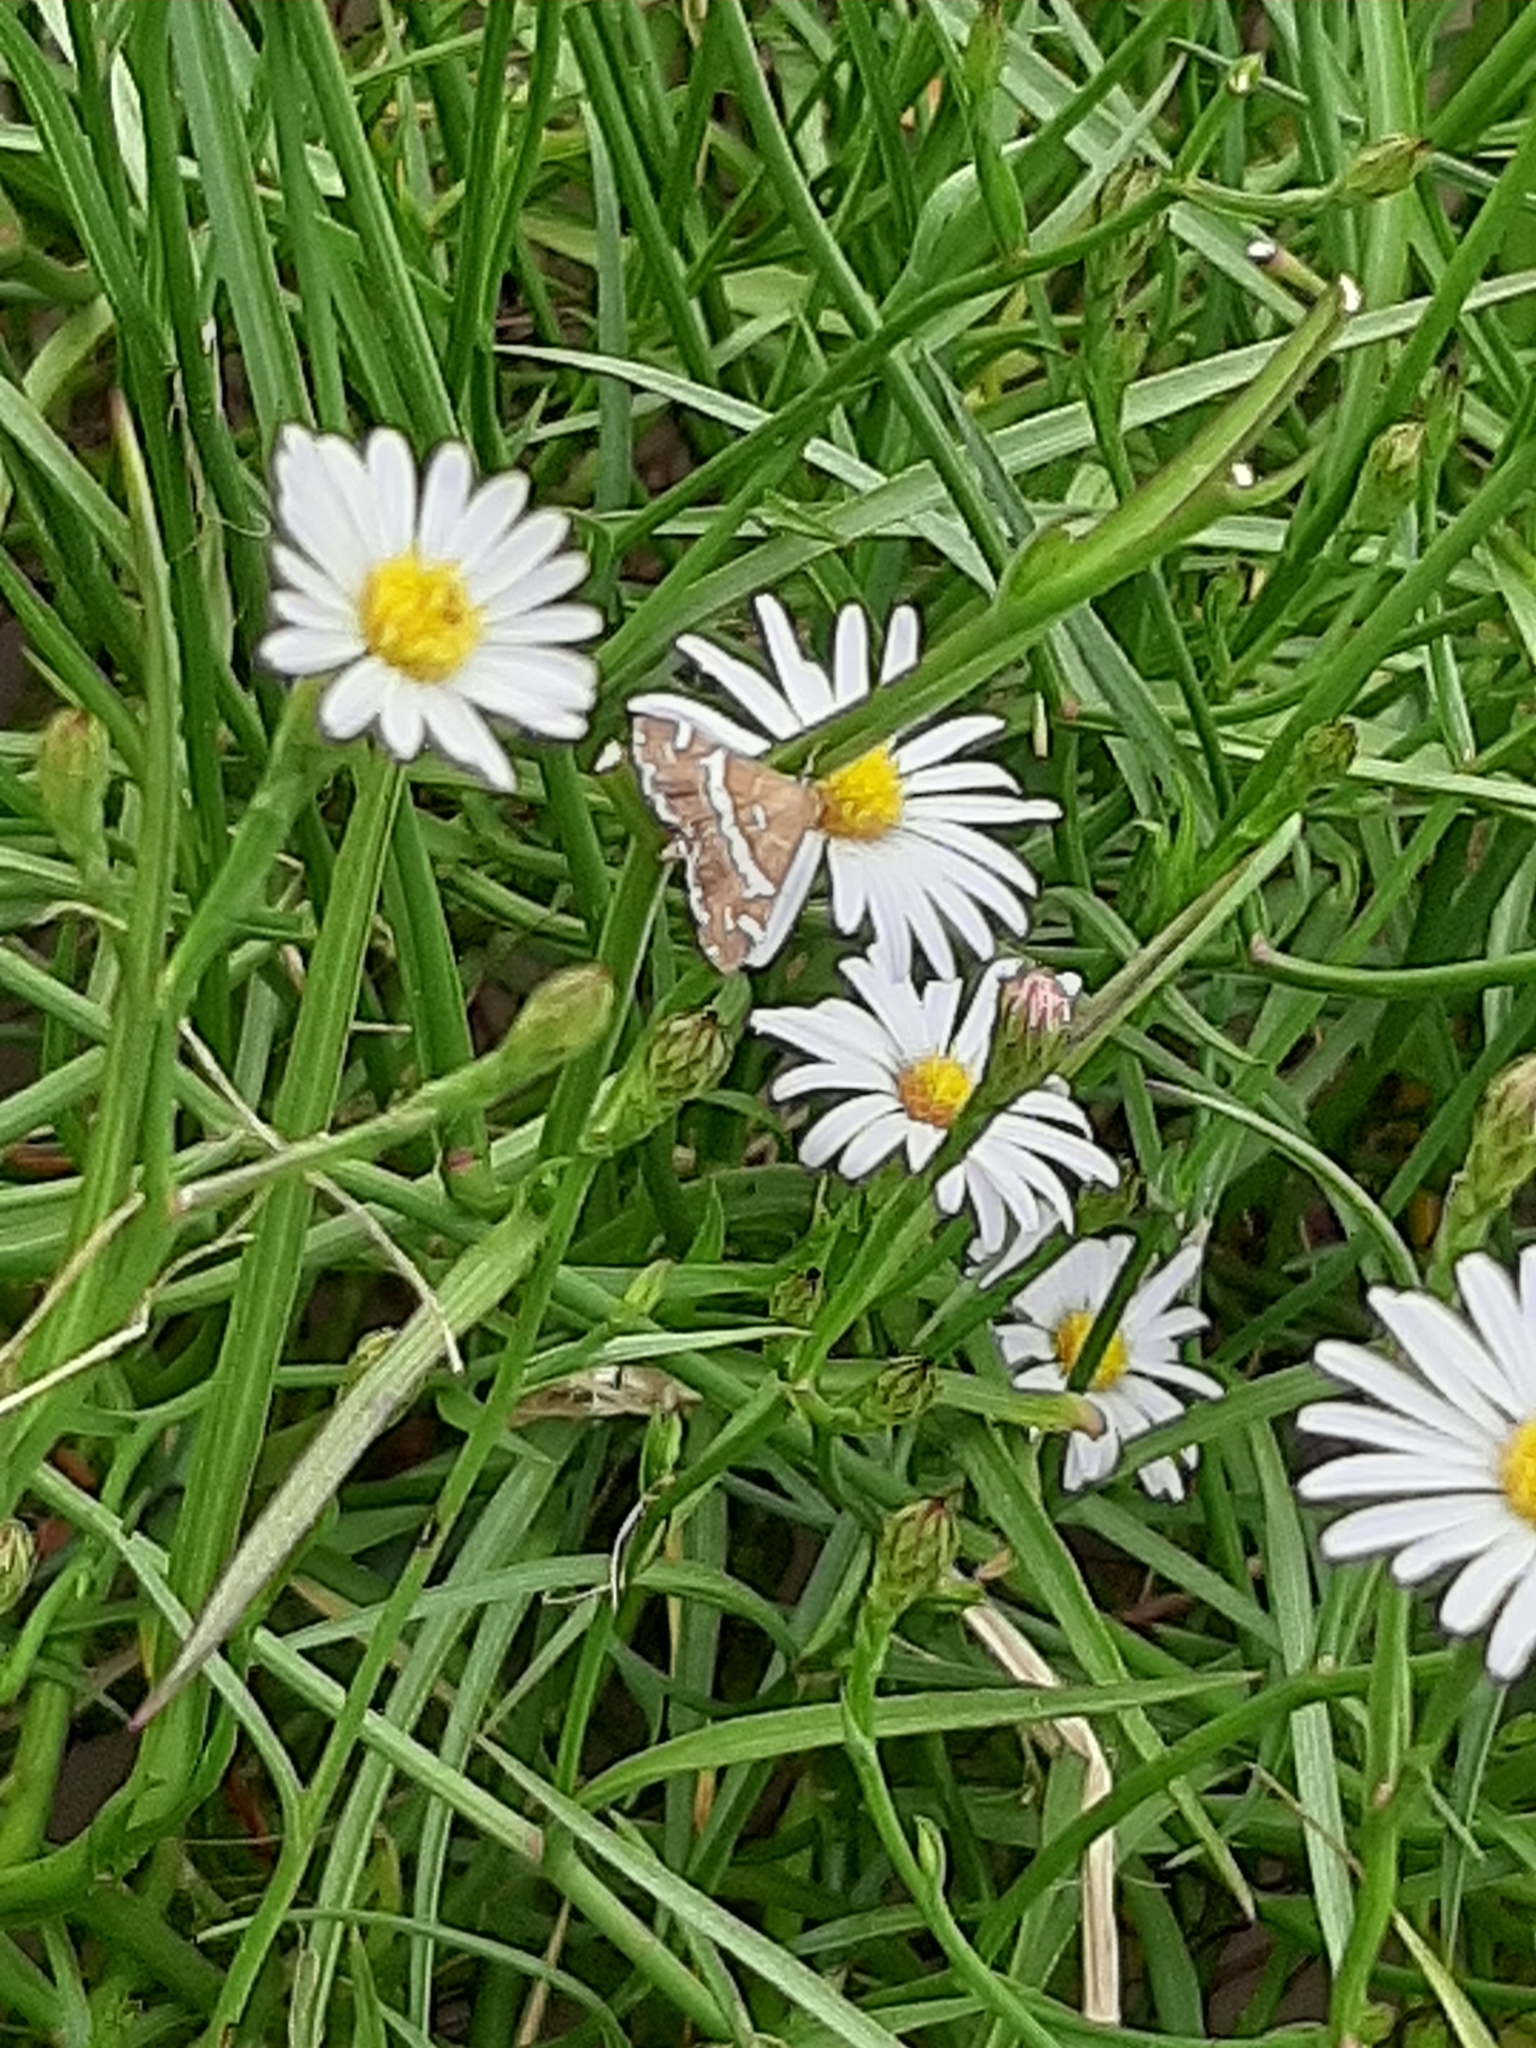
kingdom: Animalia
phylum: Arthropoda
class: Insecta
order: Lepidoptera
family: Crambidae
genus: Spoladea
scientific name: Spoladea recurvalis
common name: Beet webworm moth
